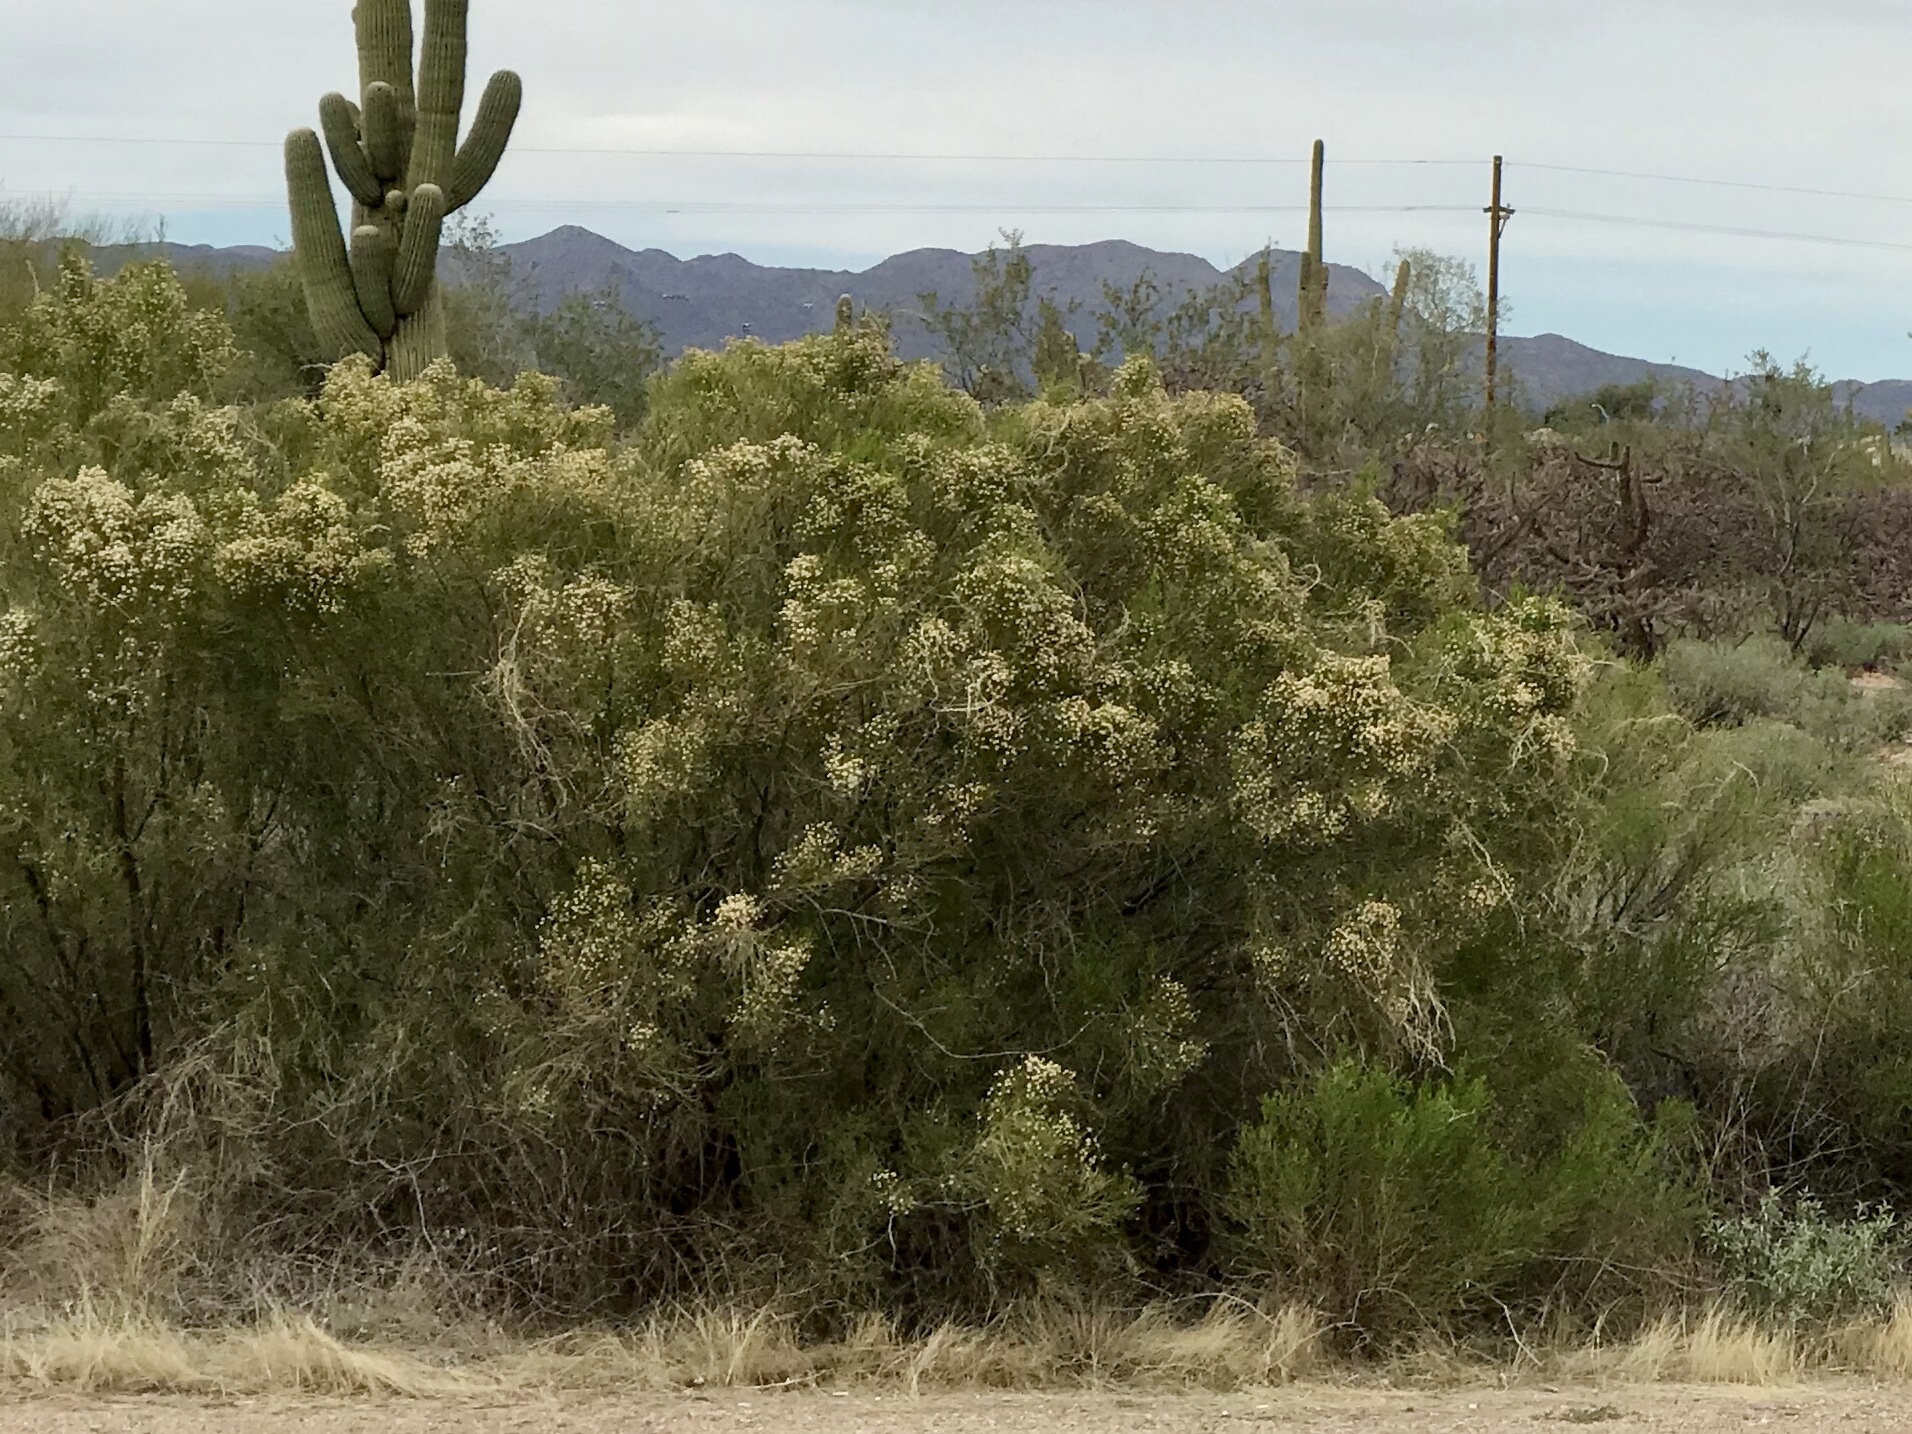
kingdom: Plantae
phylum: Tracheophyta
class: Magnoliopsida
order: Asterales
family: Asteraceae
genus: Baccharis
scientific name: Baccharis sarothroides
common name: Desert-broom
